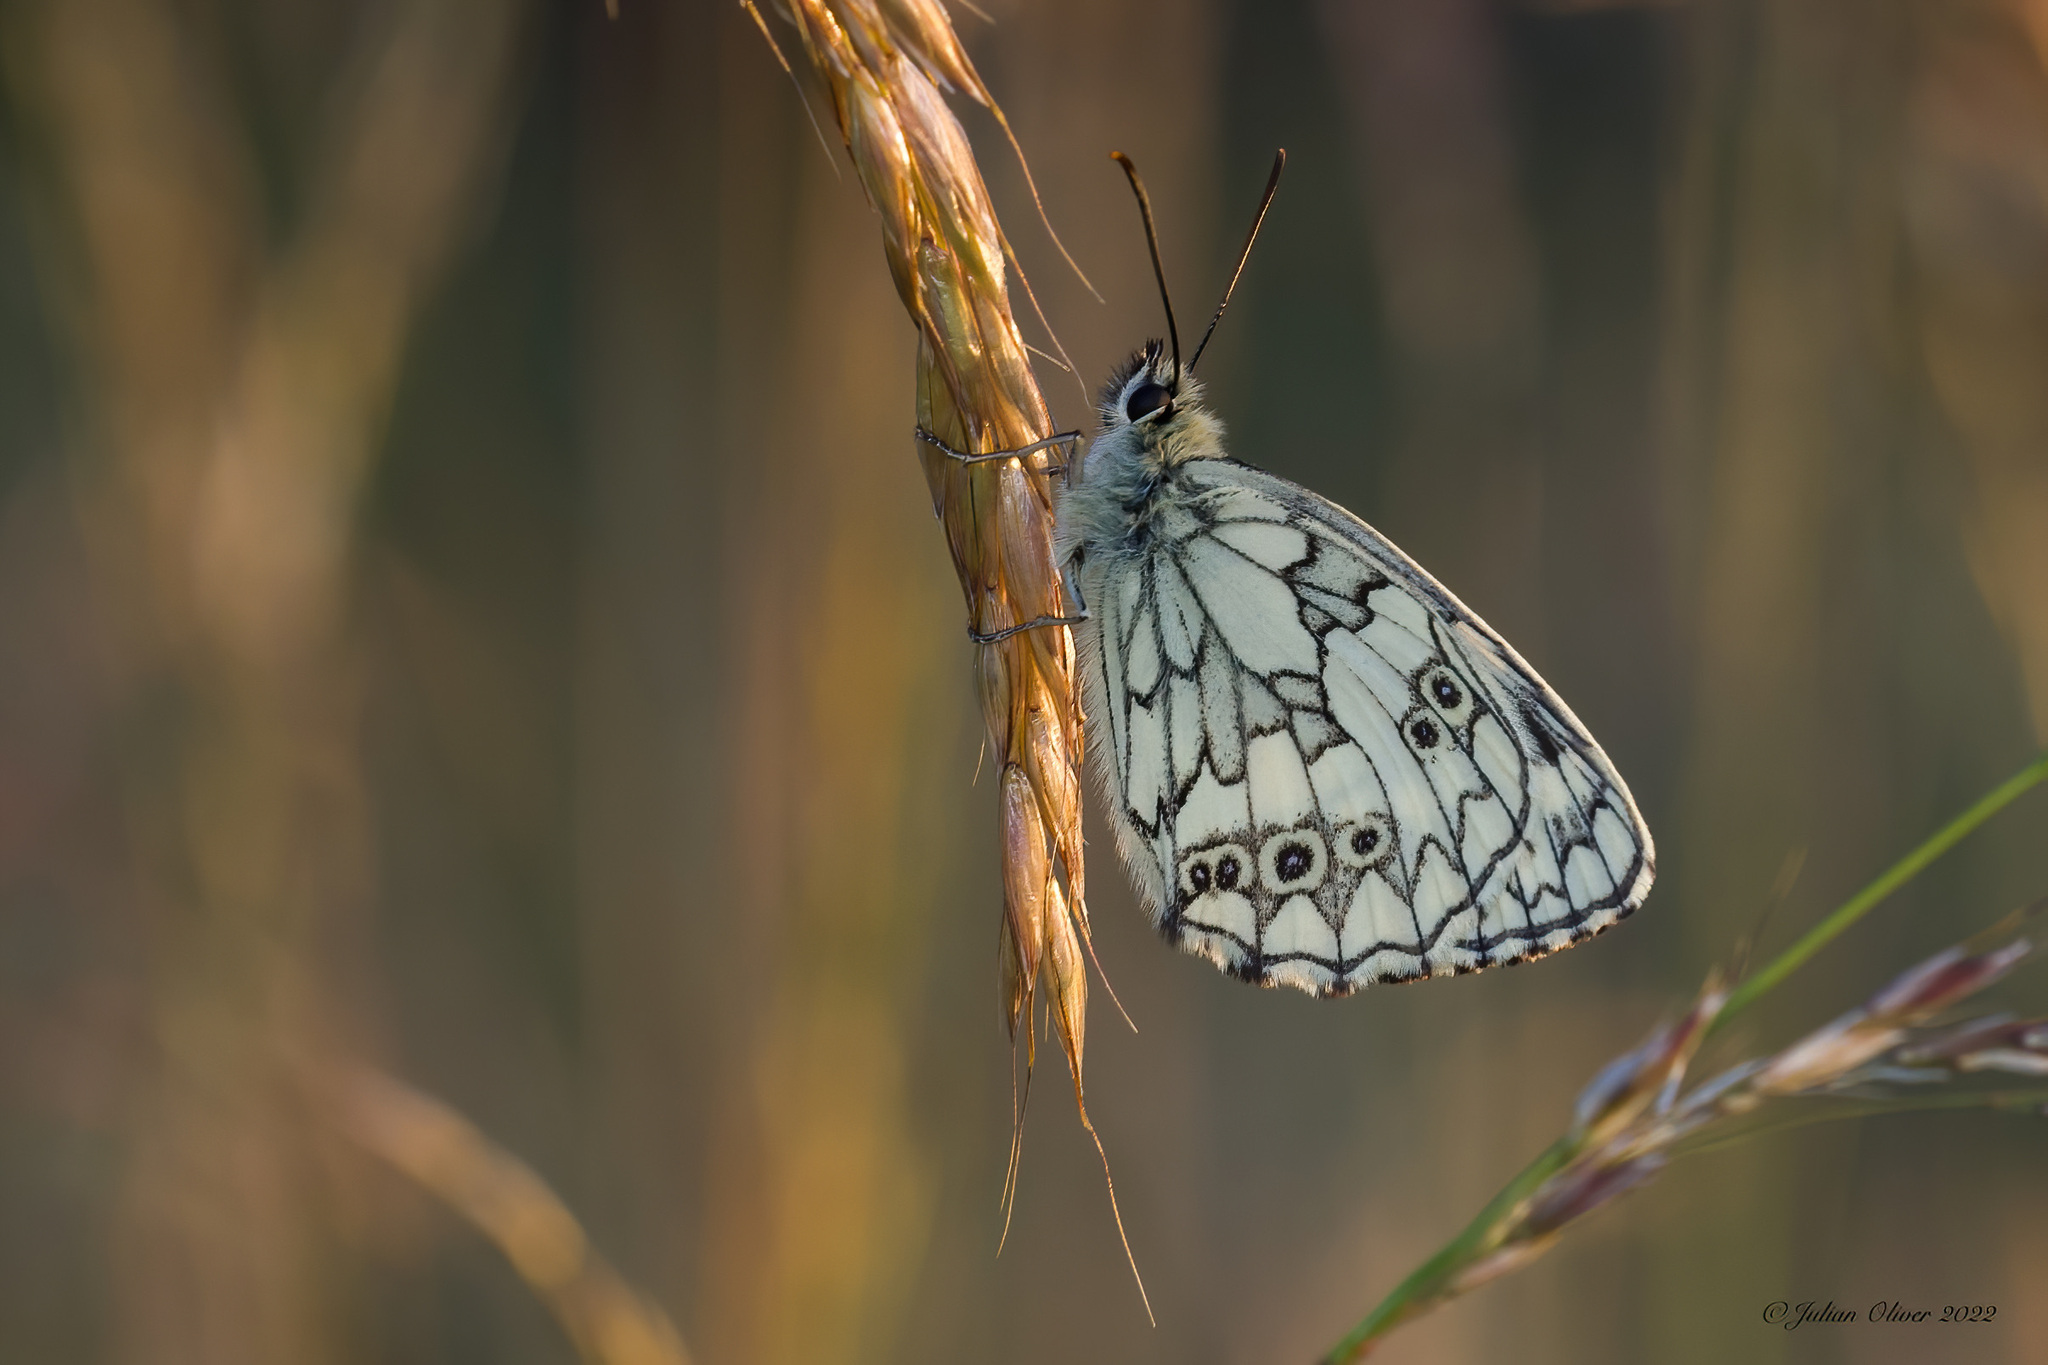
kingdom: Animalia
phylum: Arthropoda
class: Insecta
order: Lepidoptera
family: Nymphalidae
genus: Melanargia
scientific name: Melanargia galathea
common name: Marbled white
